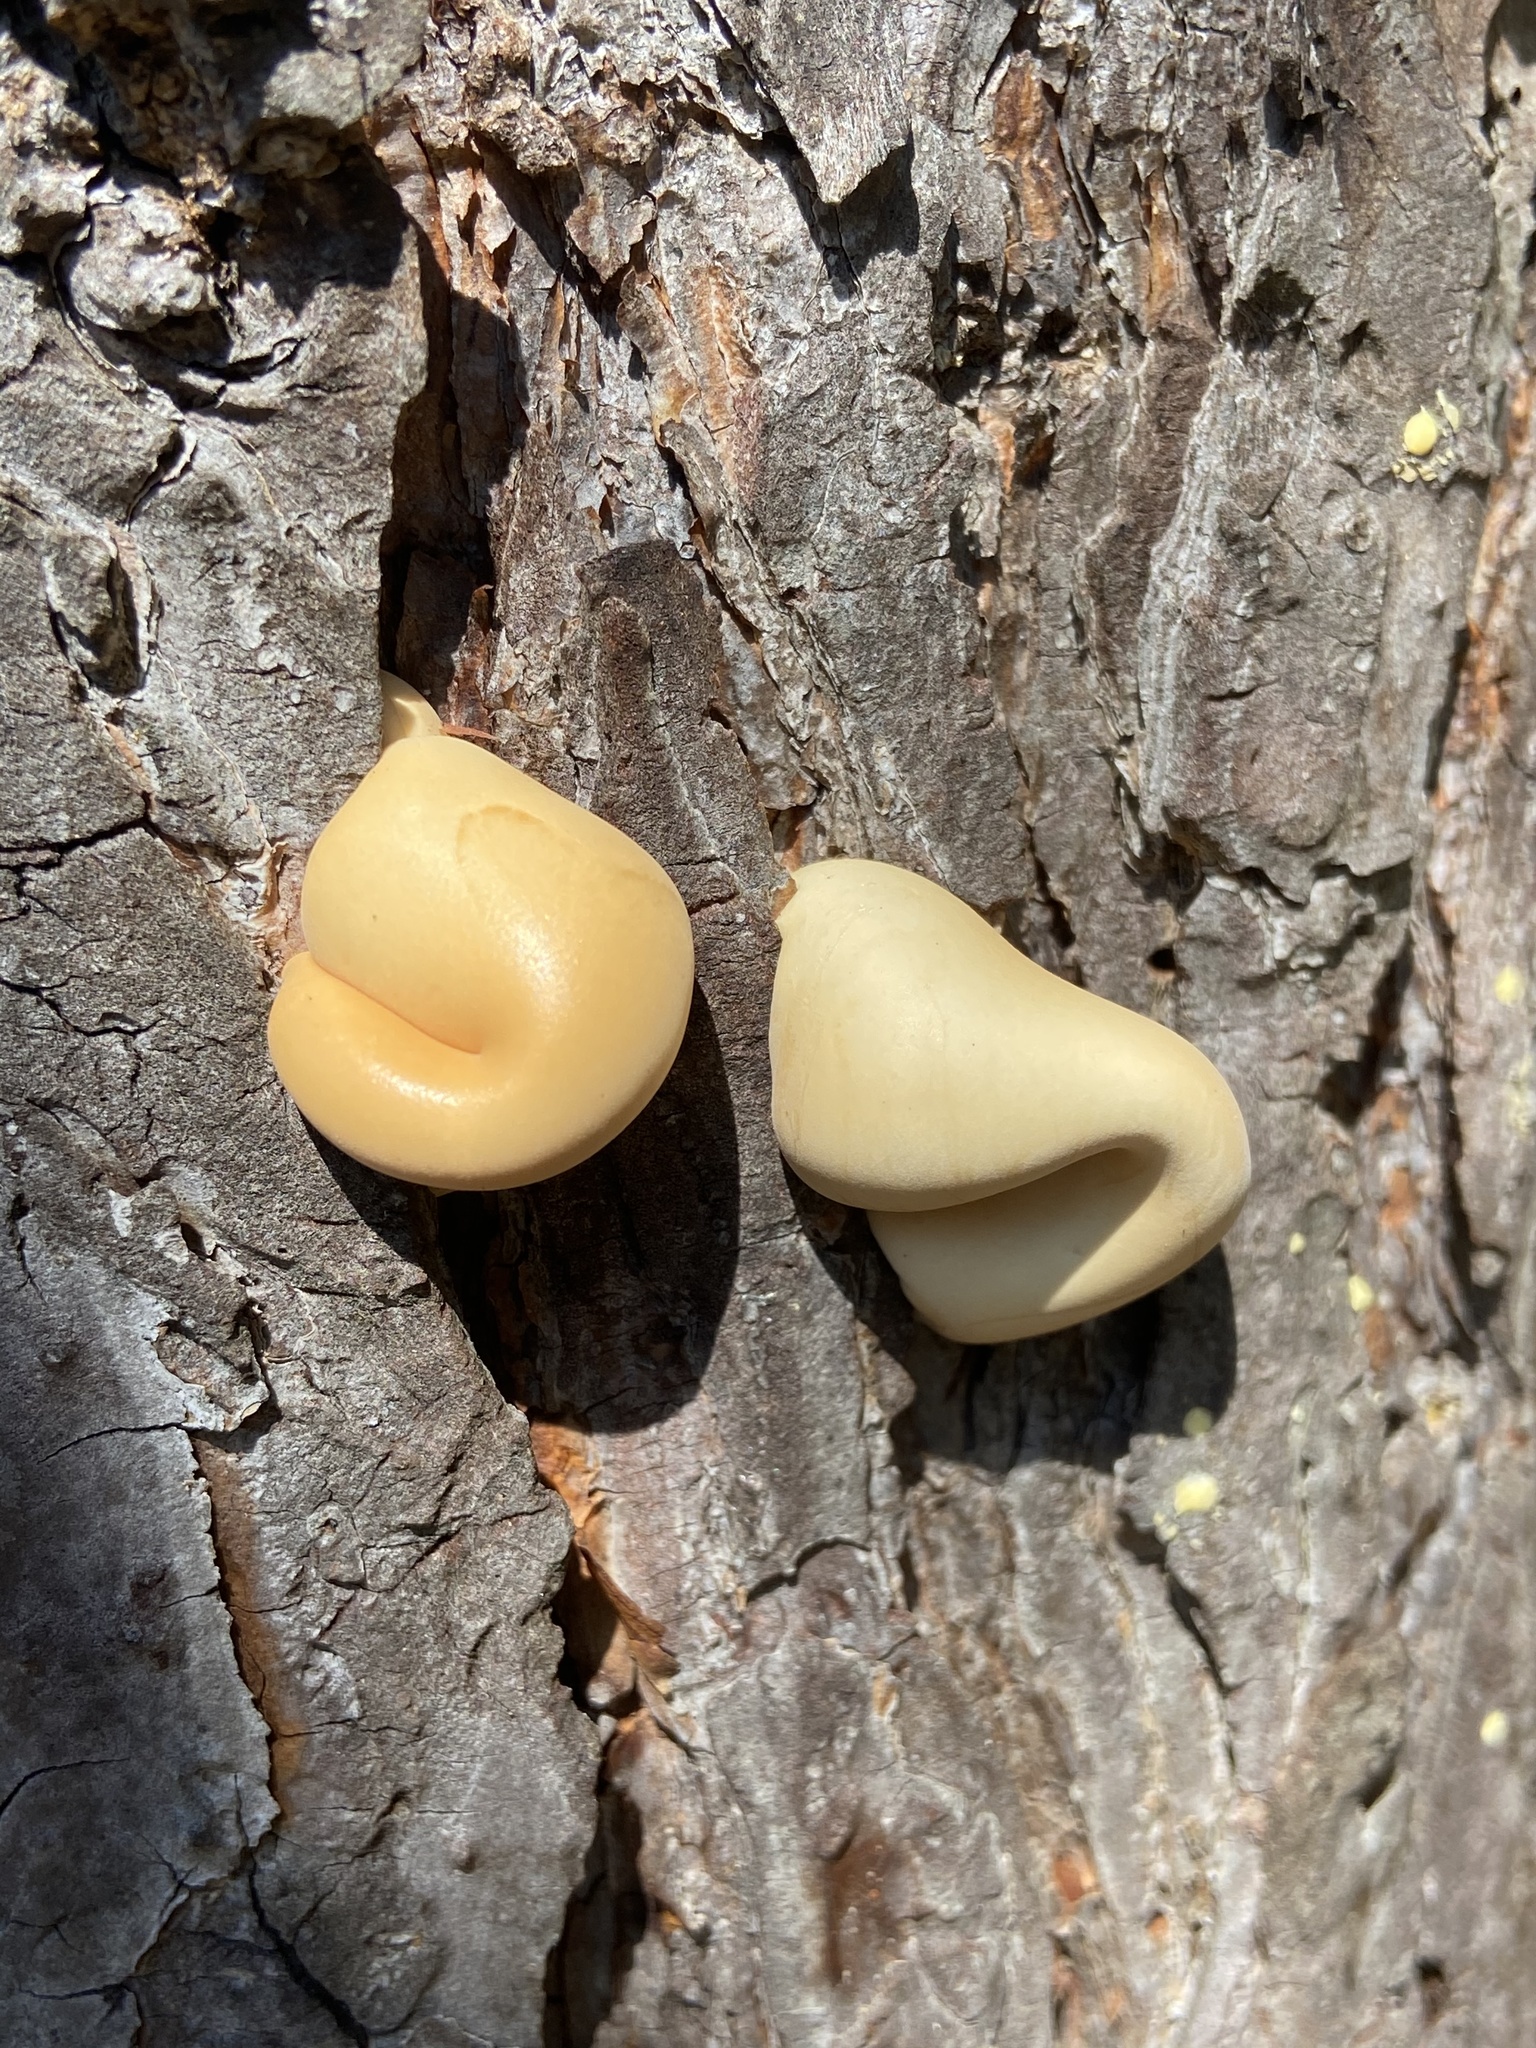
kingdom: Fungi
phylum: Basidiomycota
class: Agaricomycetes
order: Polyporales
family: Polyporaceae
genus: Cryptoporus
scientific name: Cryptoporus volvatus
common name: Veiled polypore
